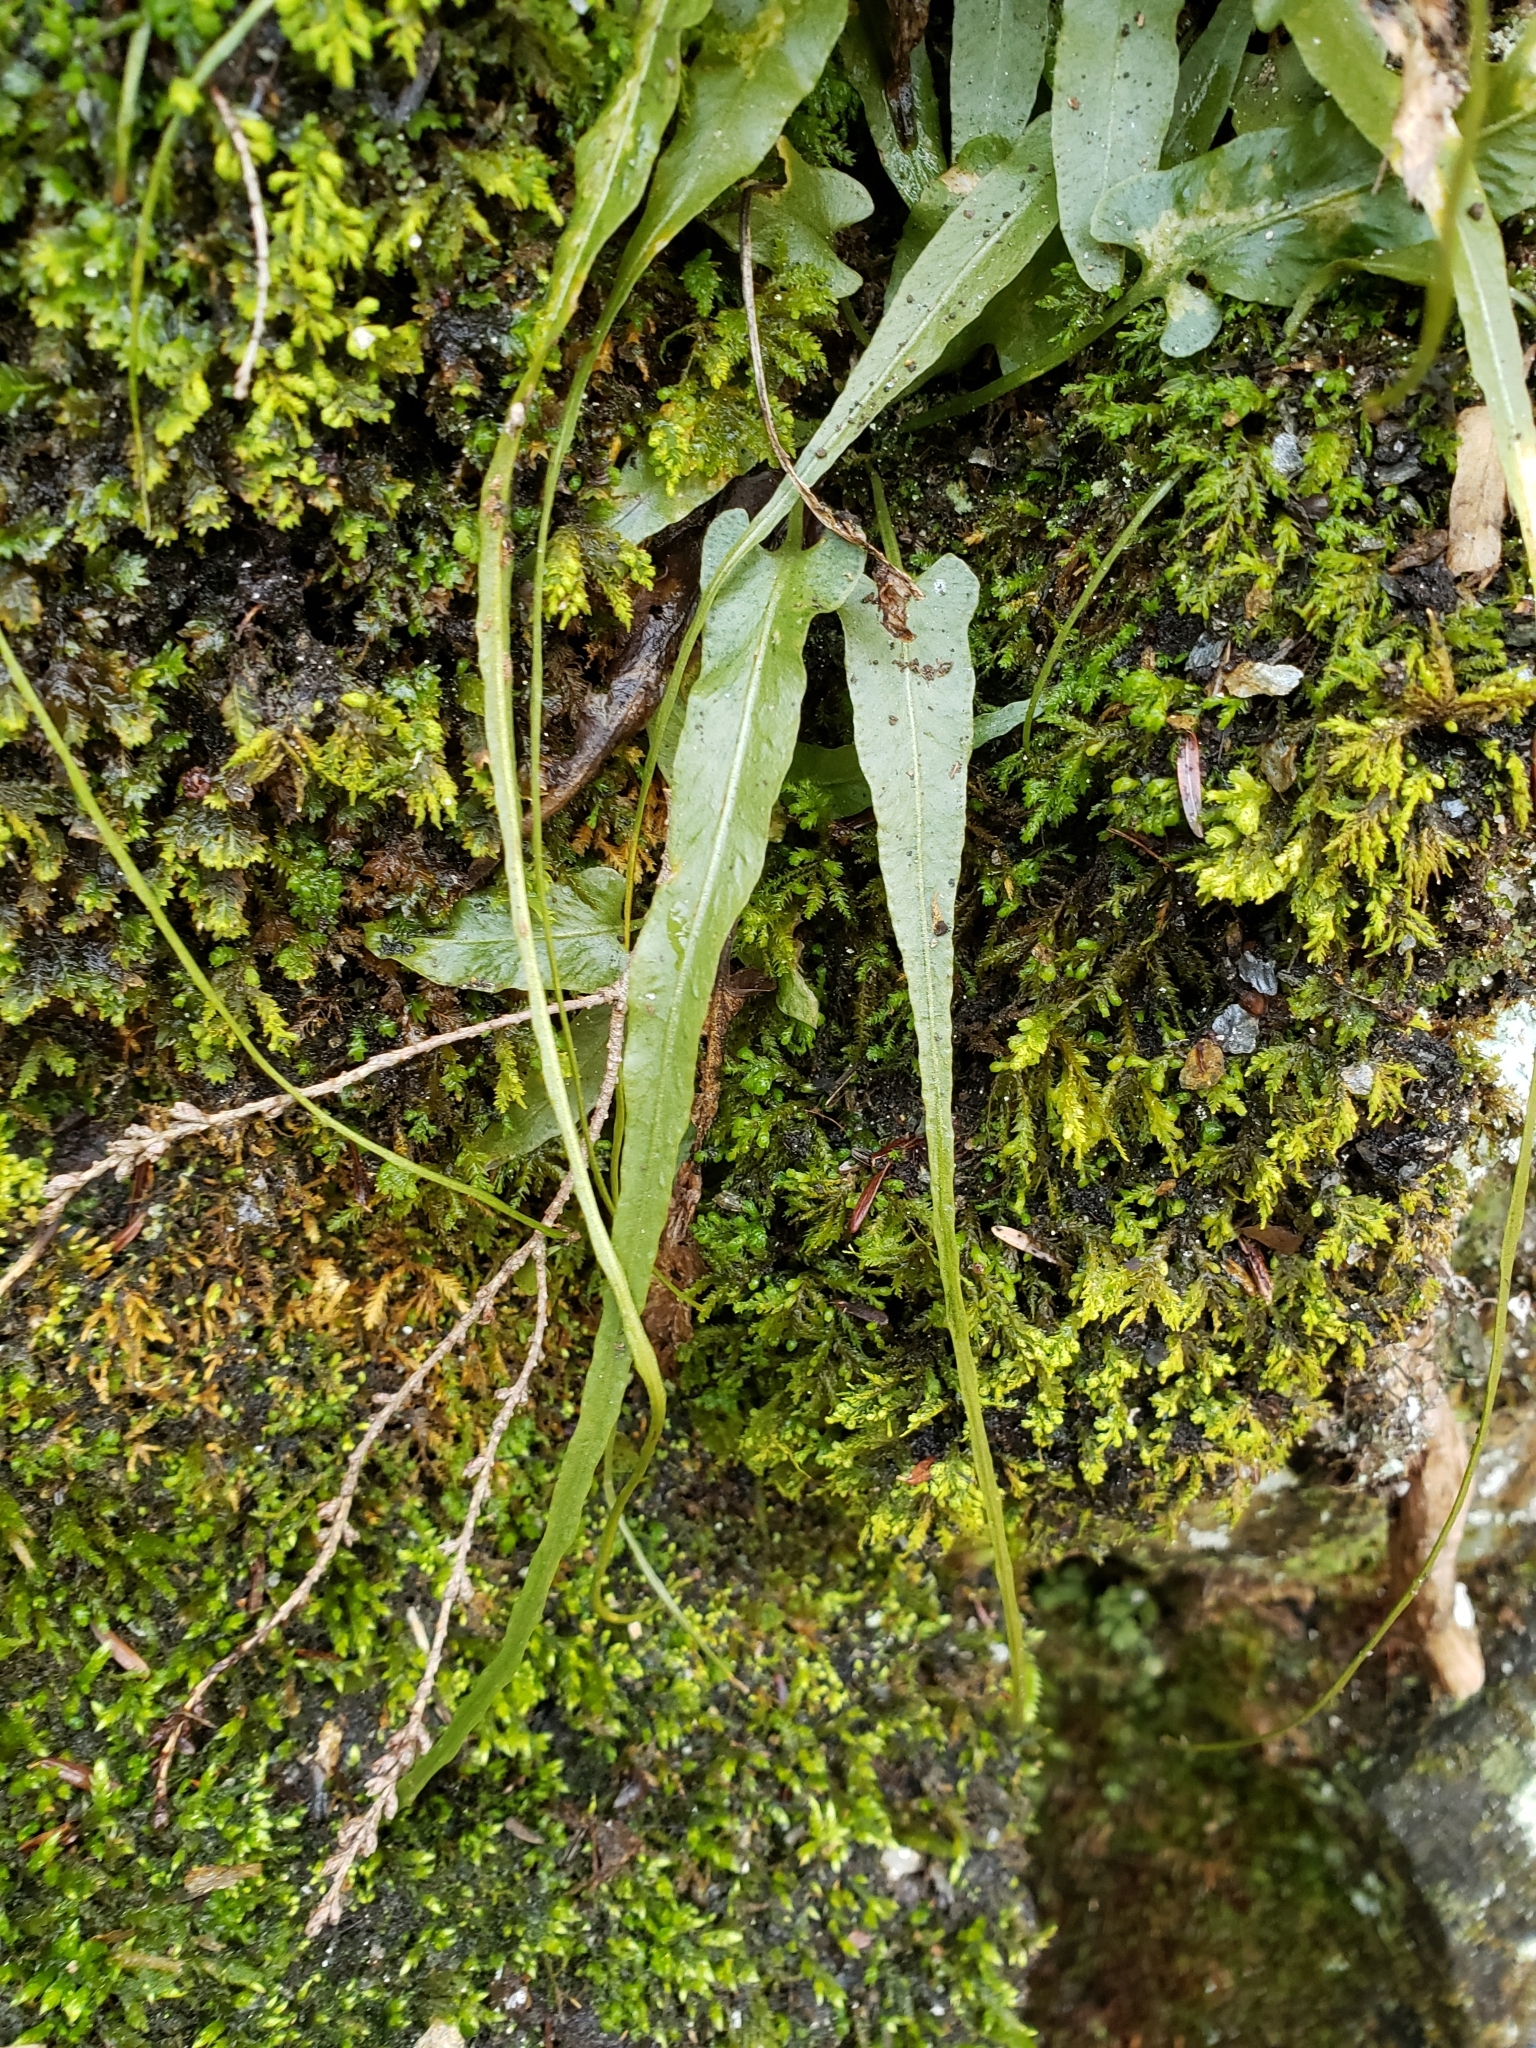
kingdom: Plantae
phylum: Tracheophyta
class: Polypodiopsida
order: Polypodiales
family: Aspleniaceae
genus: Asplenium
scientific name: Asplenium rhizophyllum
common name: Walking fern
